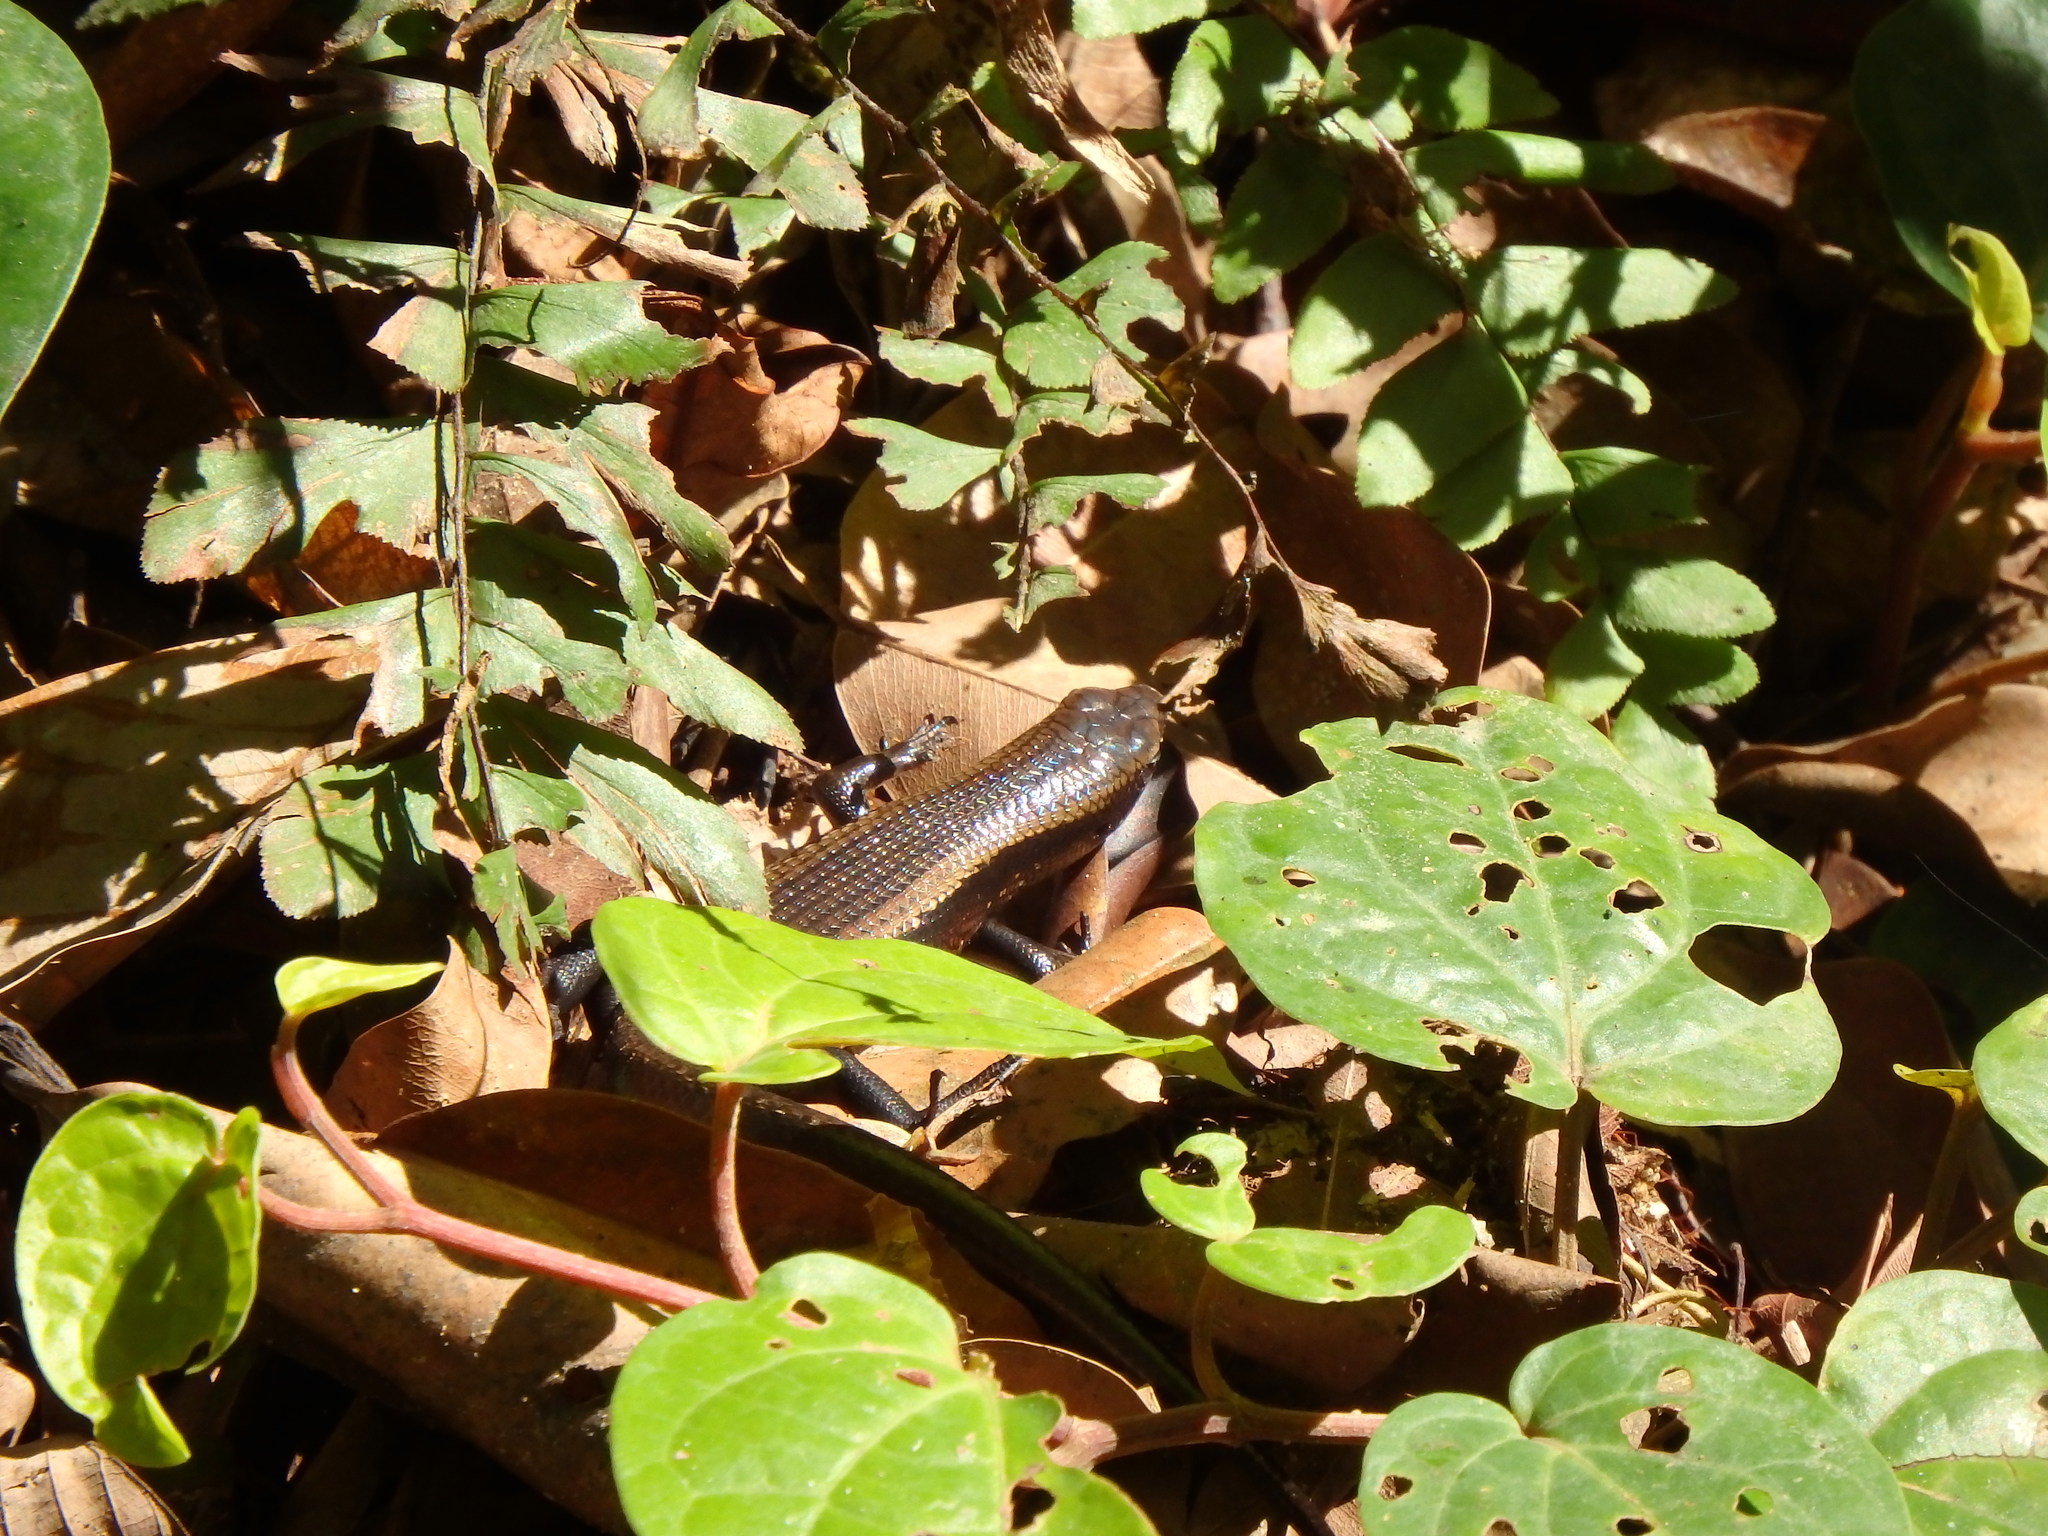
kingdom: Animalia
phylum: Chordata
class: Squamata
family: Scincidae
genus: Eutropis
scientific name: Eutropis multifasciata
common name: Common mabuya
